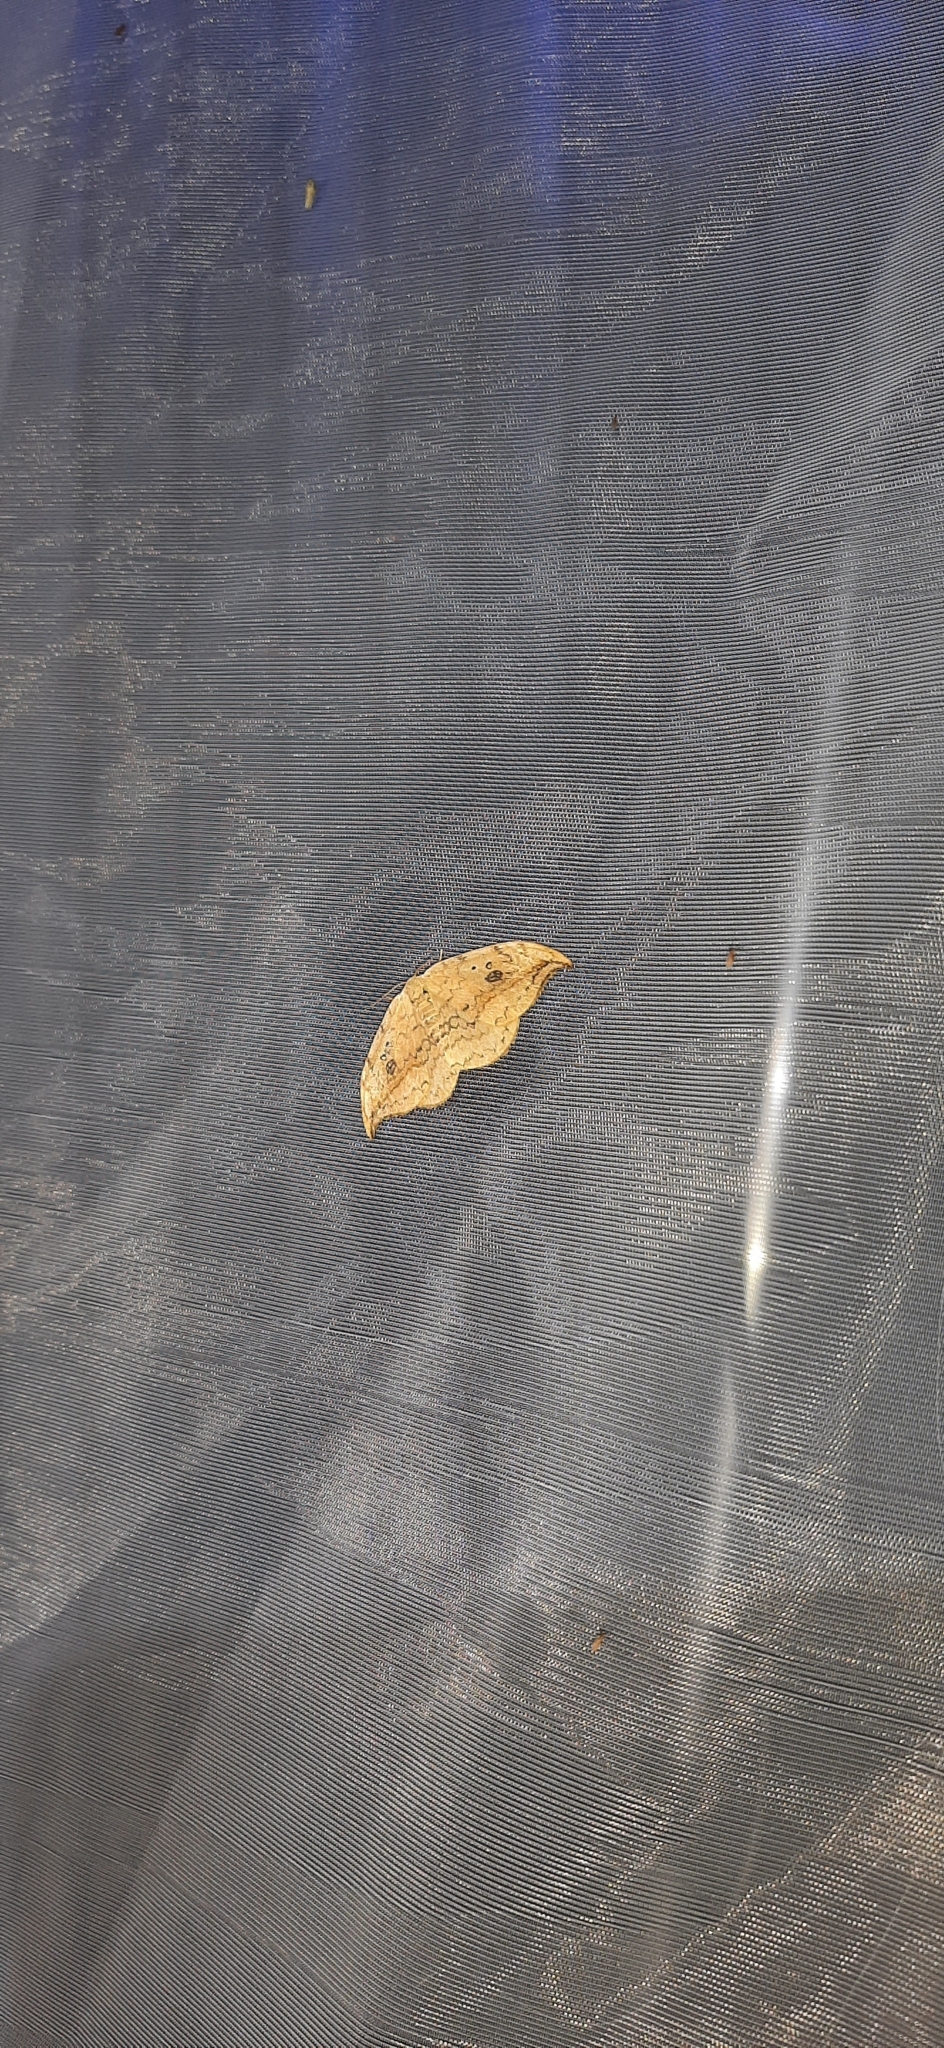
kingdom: Animalia
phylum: Arthropoda
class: Insecta
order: Lepidoptera
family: Drepanidae
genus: Drepana
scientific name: Drepana falcataria
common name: Pebble hook-tip
